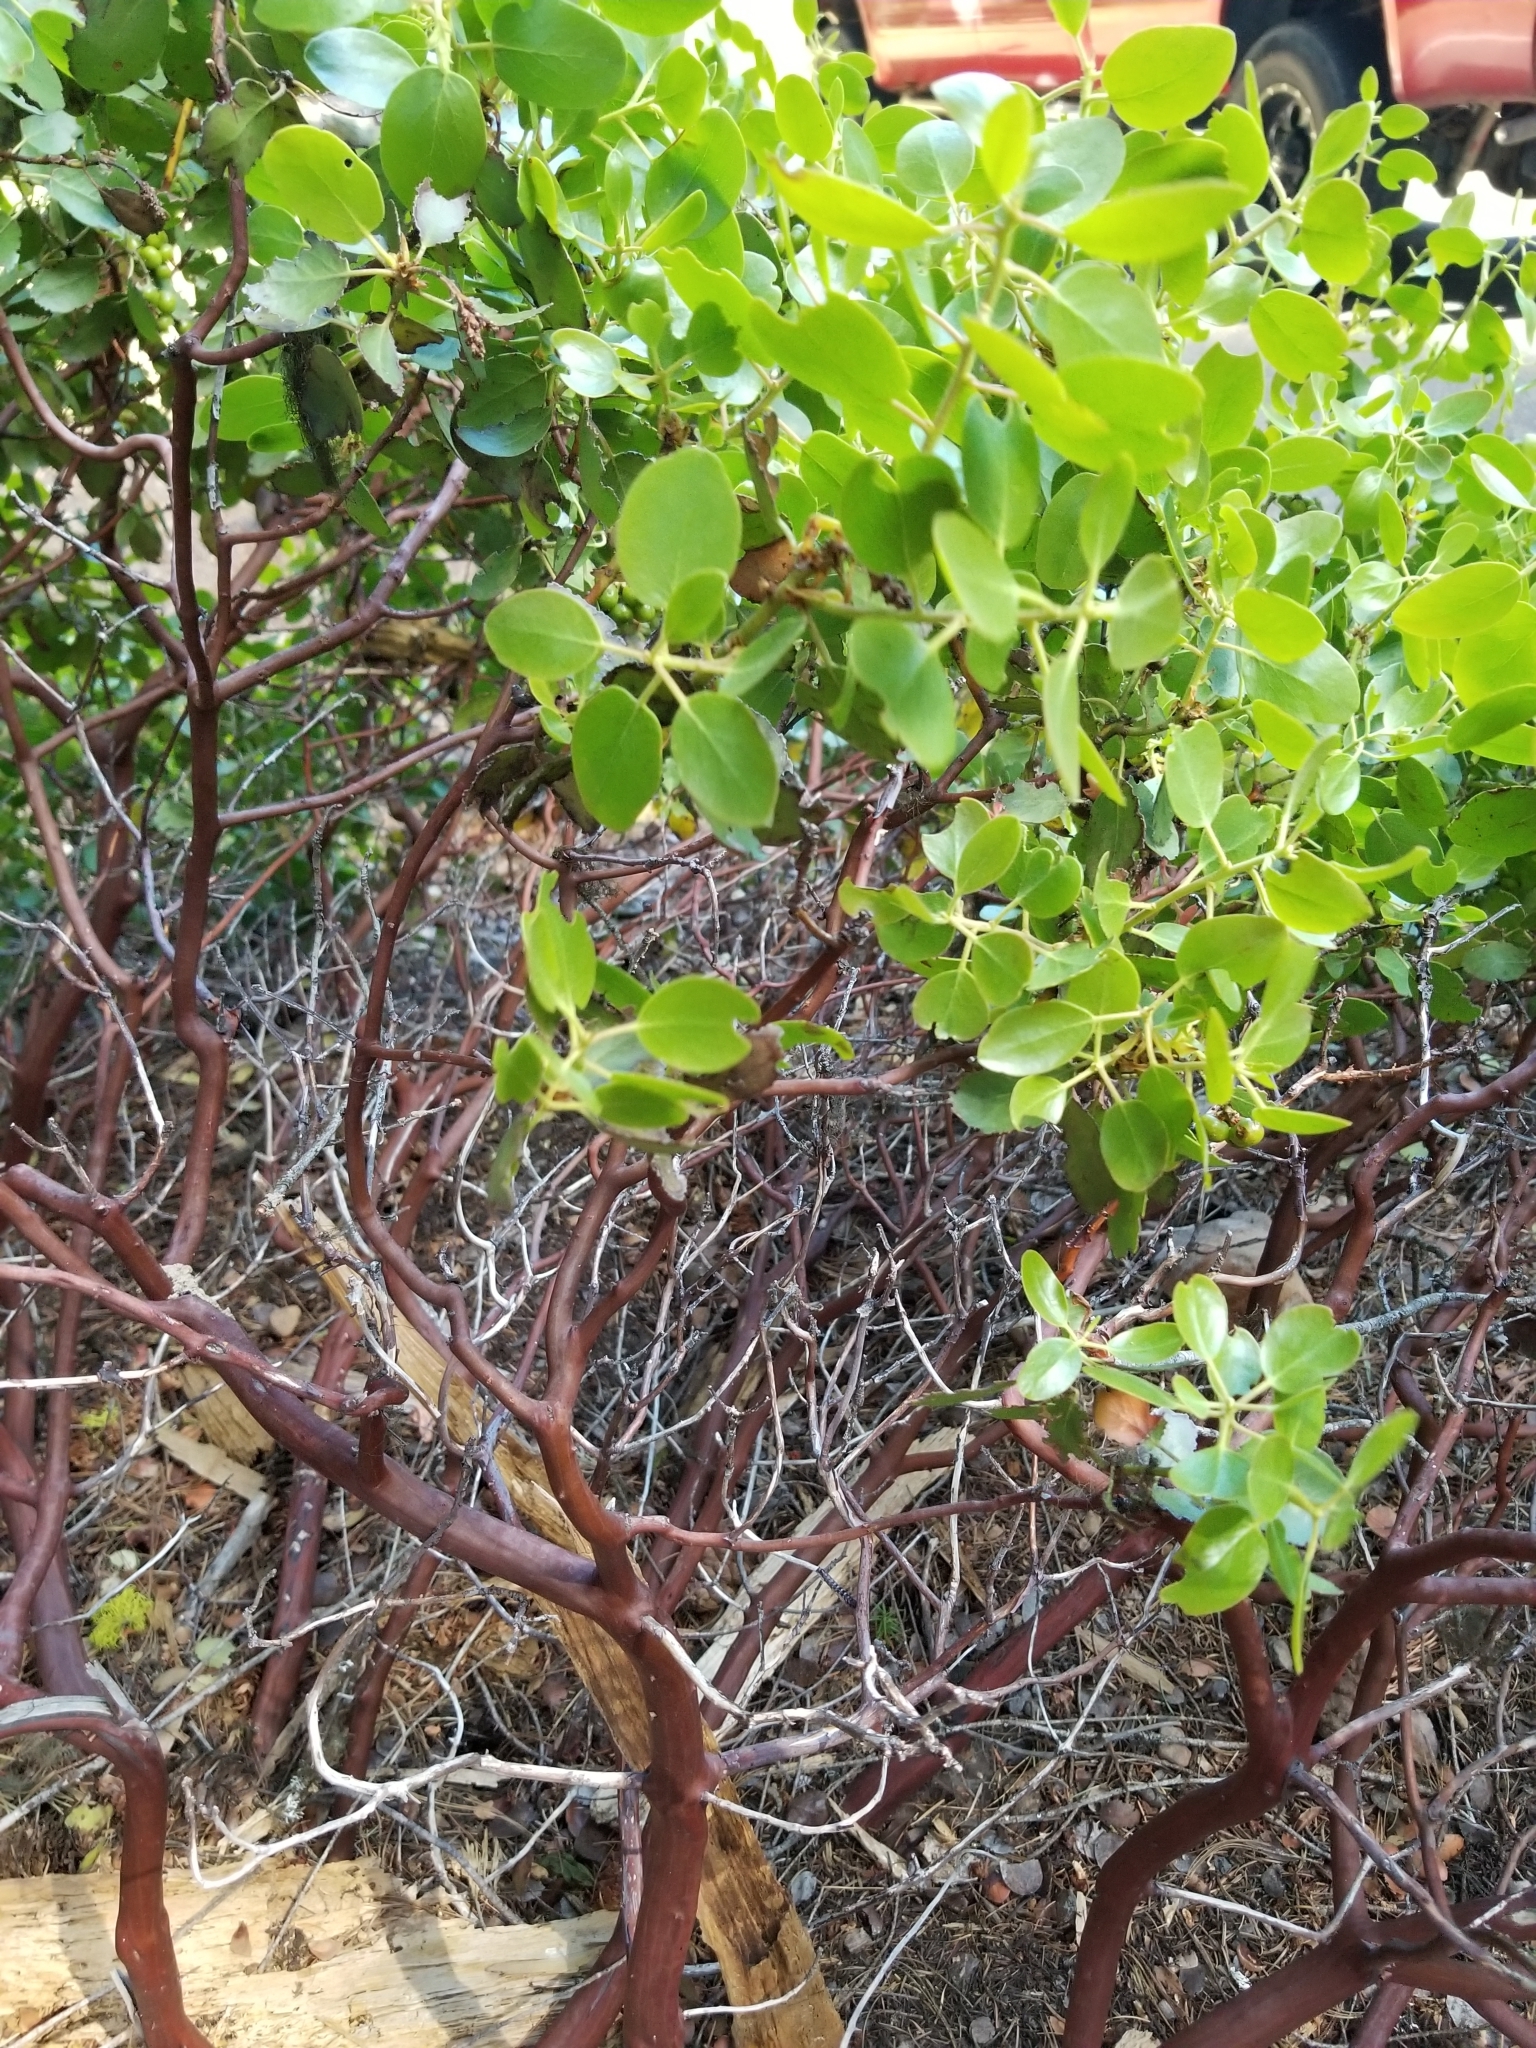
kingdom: Plantae
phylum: Tracheophyta
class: Magnoliopsida
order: Ericales
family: Ericaceae
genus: Arctostaphylos
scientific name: Arctostaphylos patula
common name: Green-leaf manzanita
